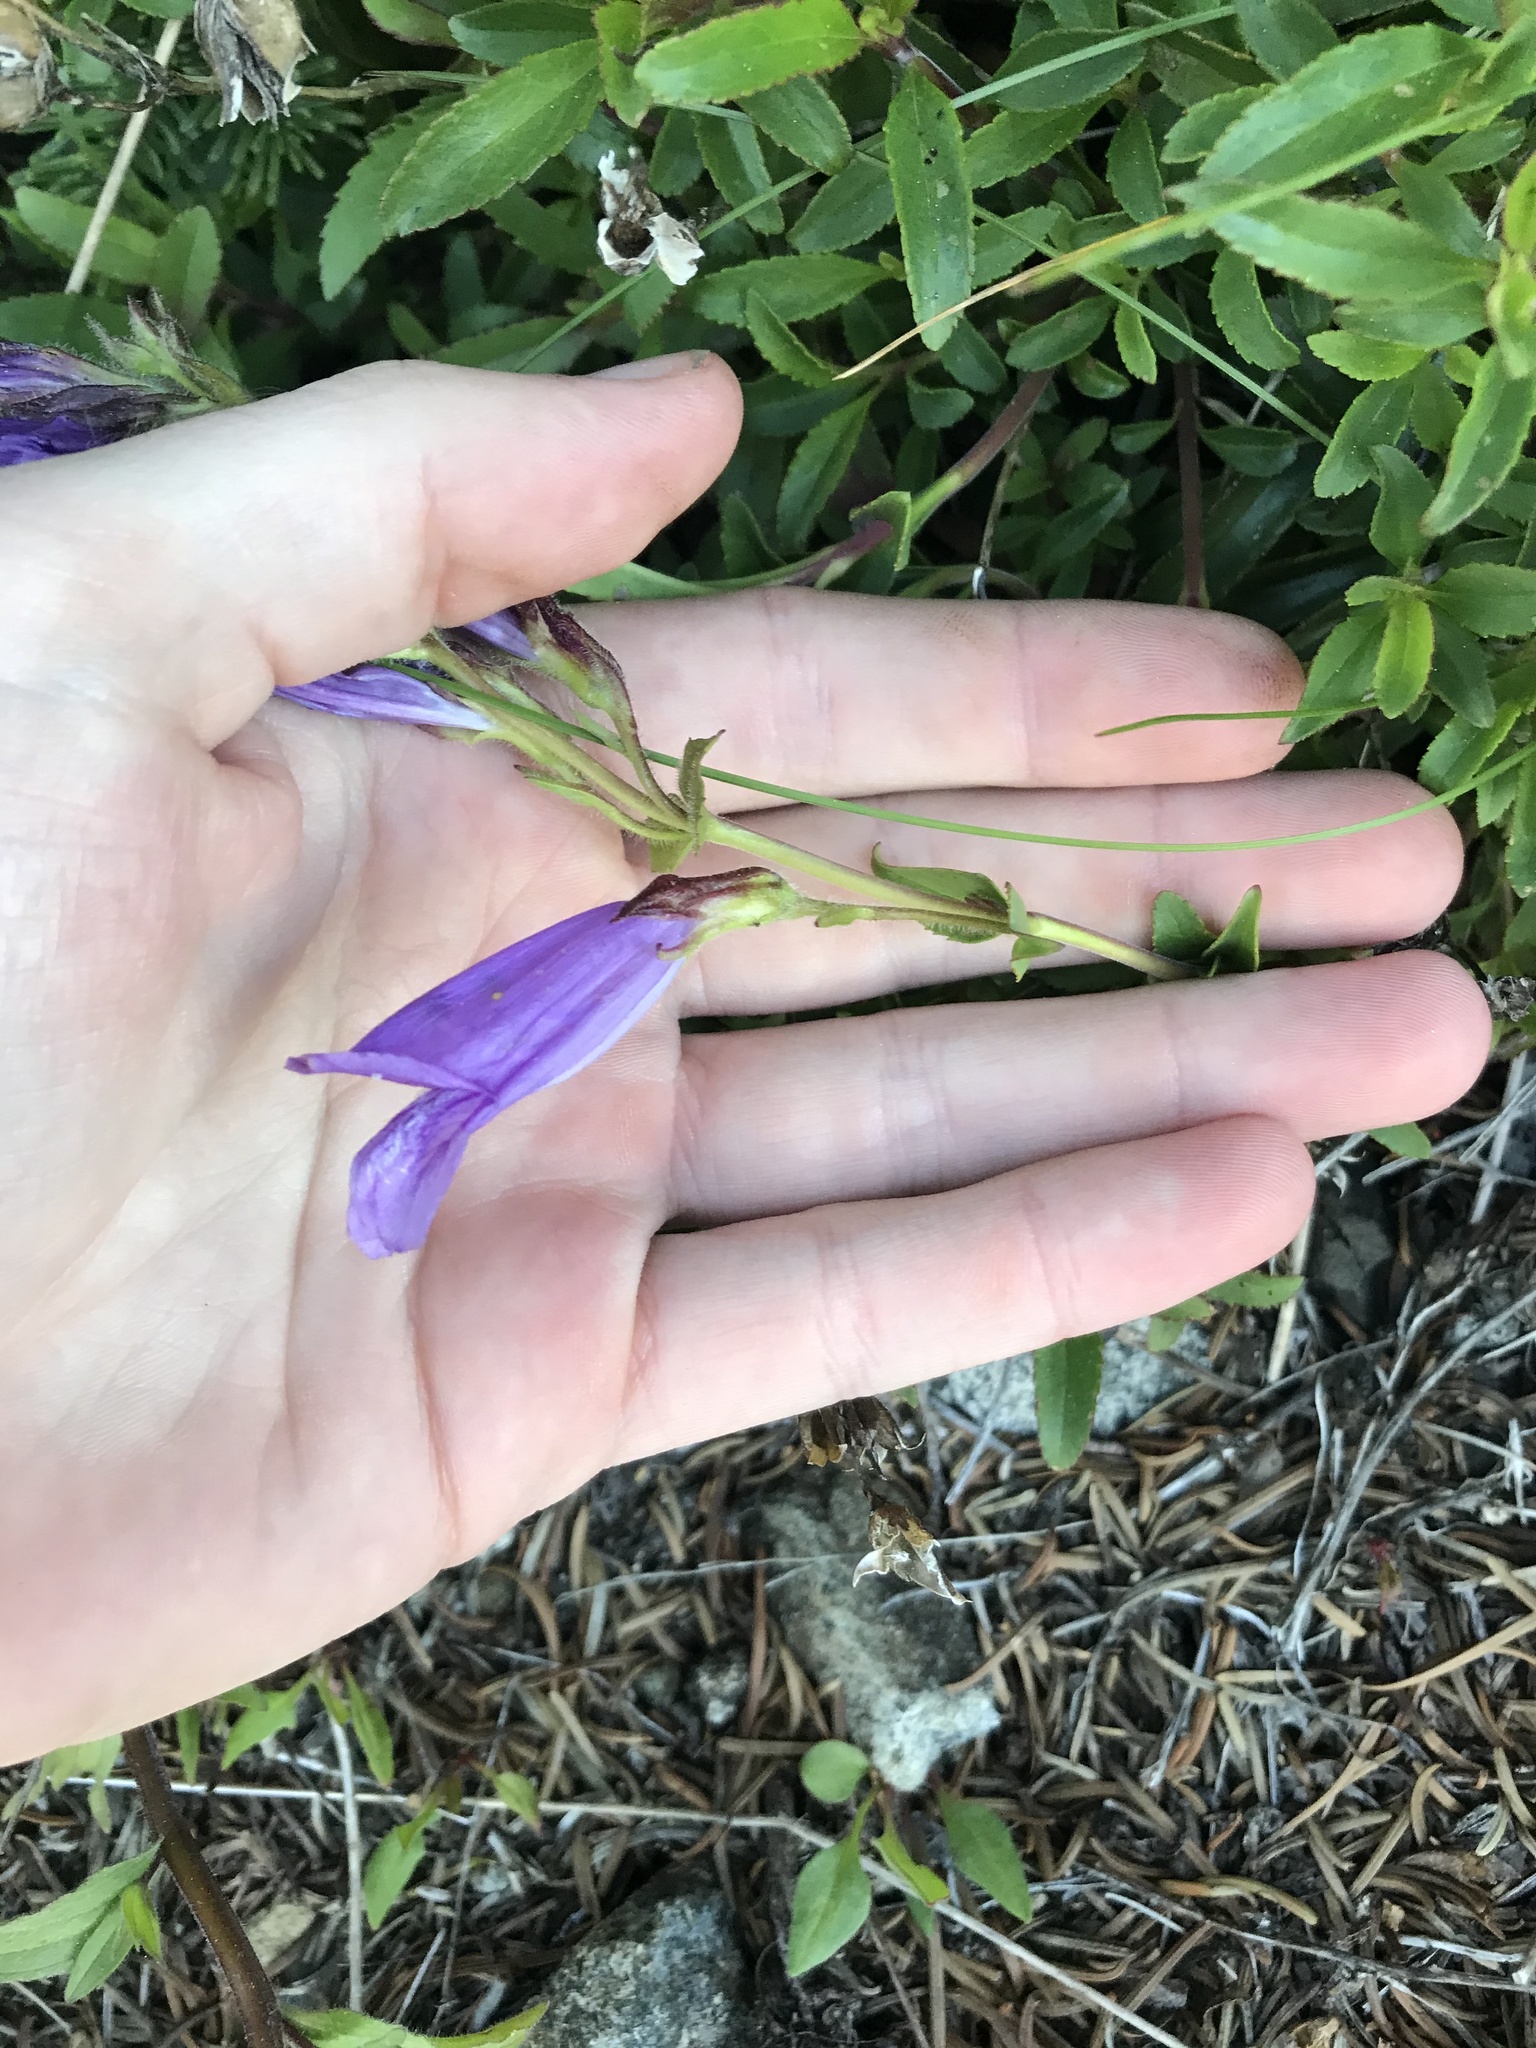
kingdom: Plantae
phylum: Tracheophyta
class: Magnoliopsida
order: Lamiales
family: Plantaginaceae
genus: Penstemon
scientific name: Penstemon cardwellii
